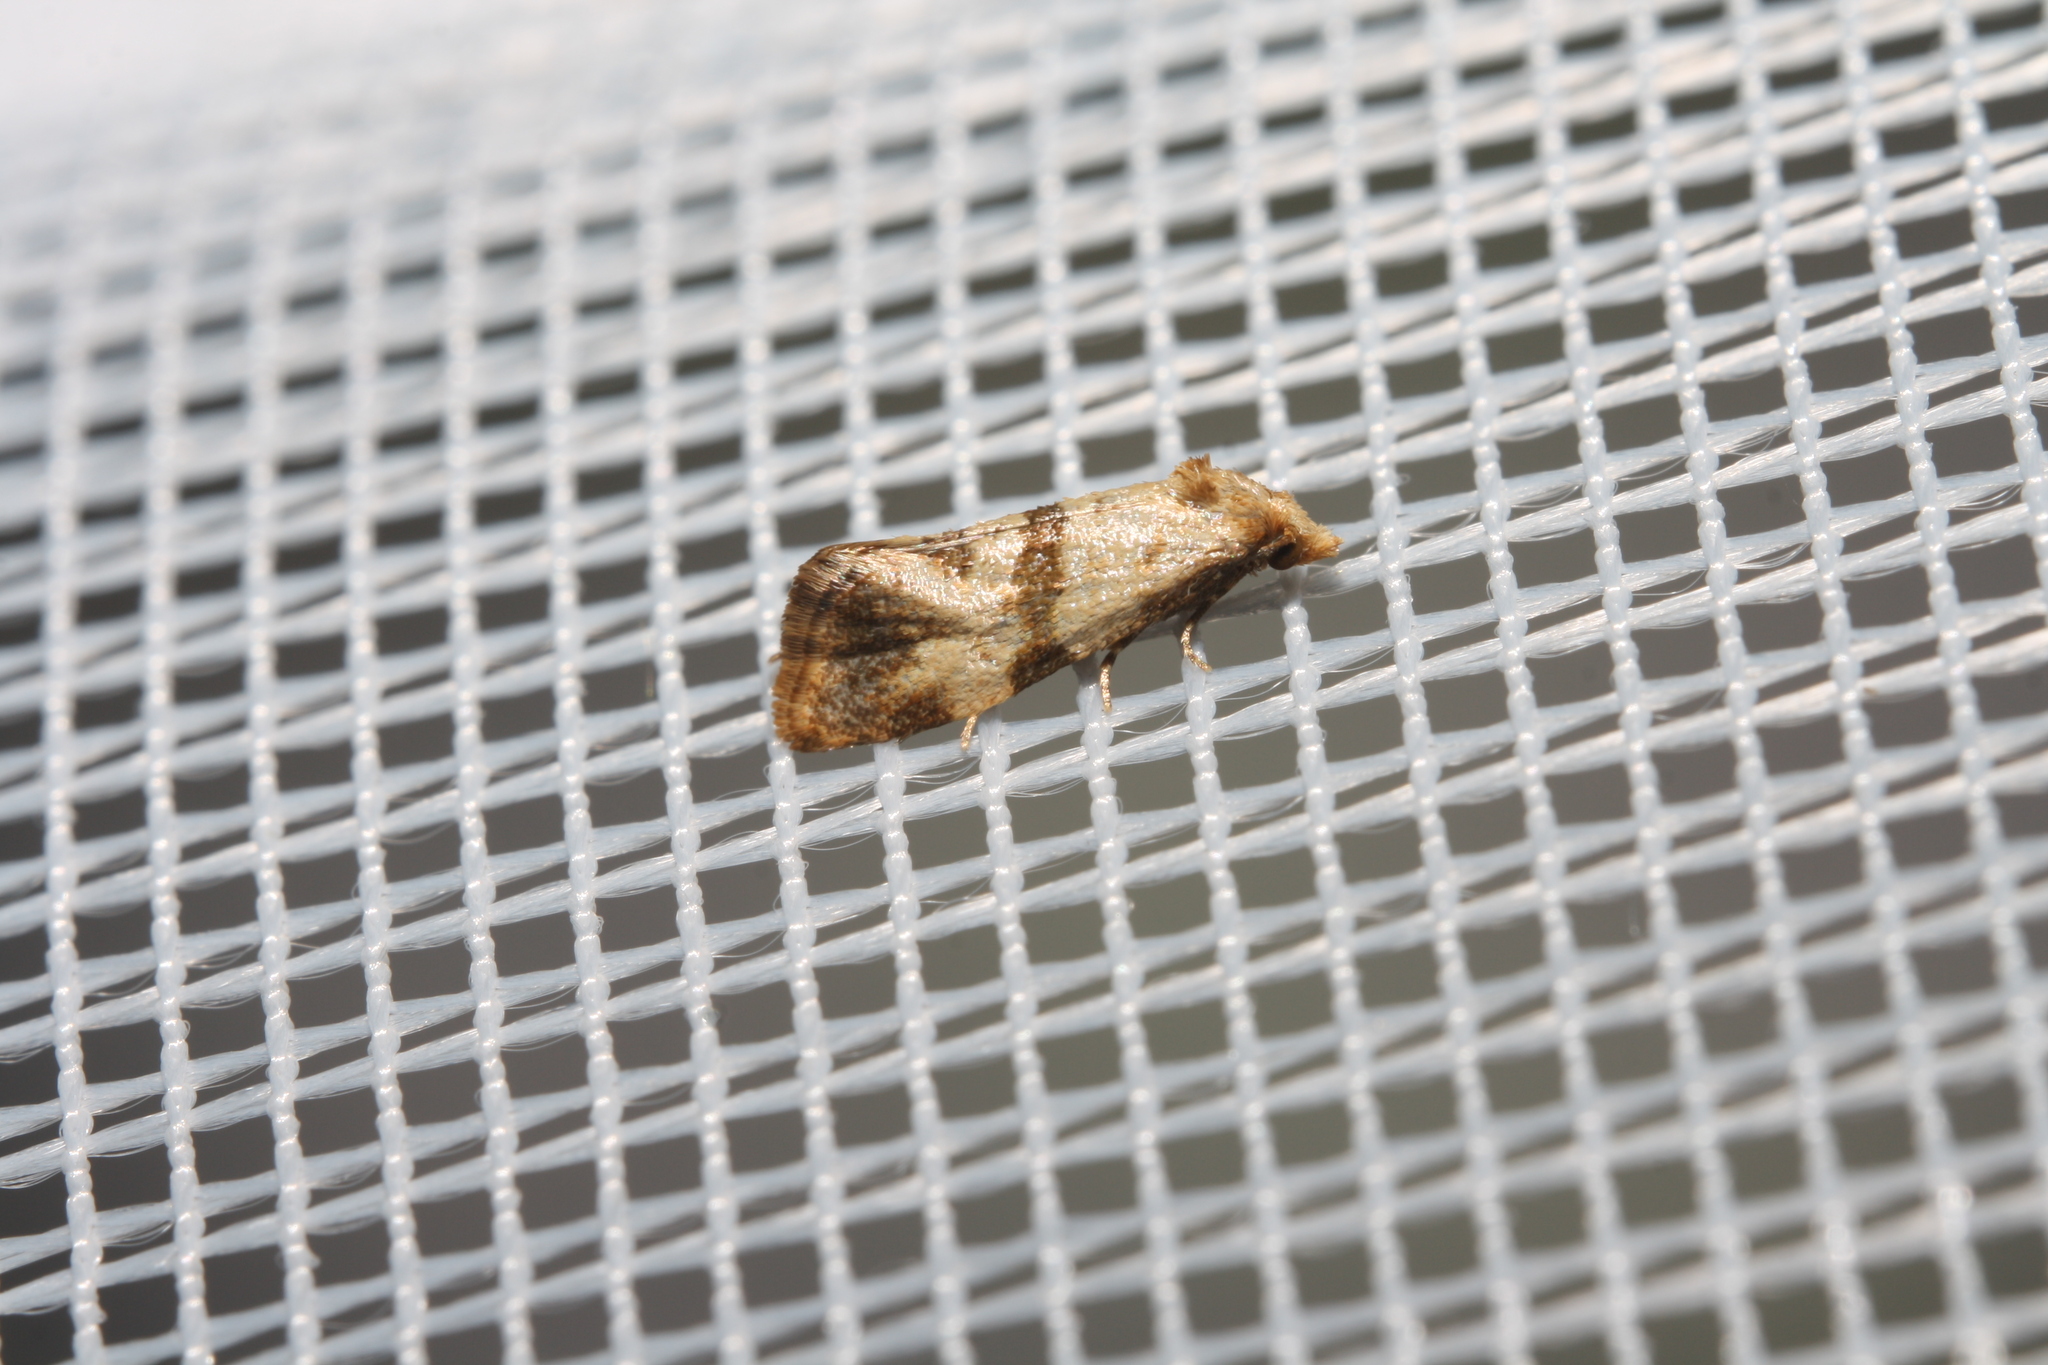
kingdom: Animalia
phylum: Arthropoda
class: Insecta
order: Lepidoptera
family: Tortricidae
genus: Phalonidia
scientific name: Phalonidia contractana
